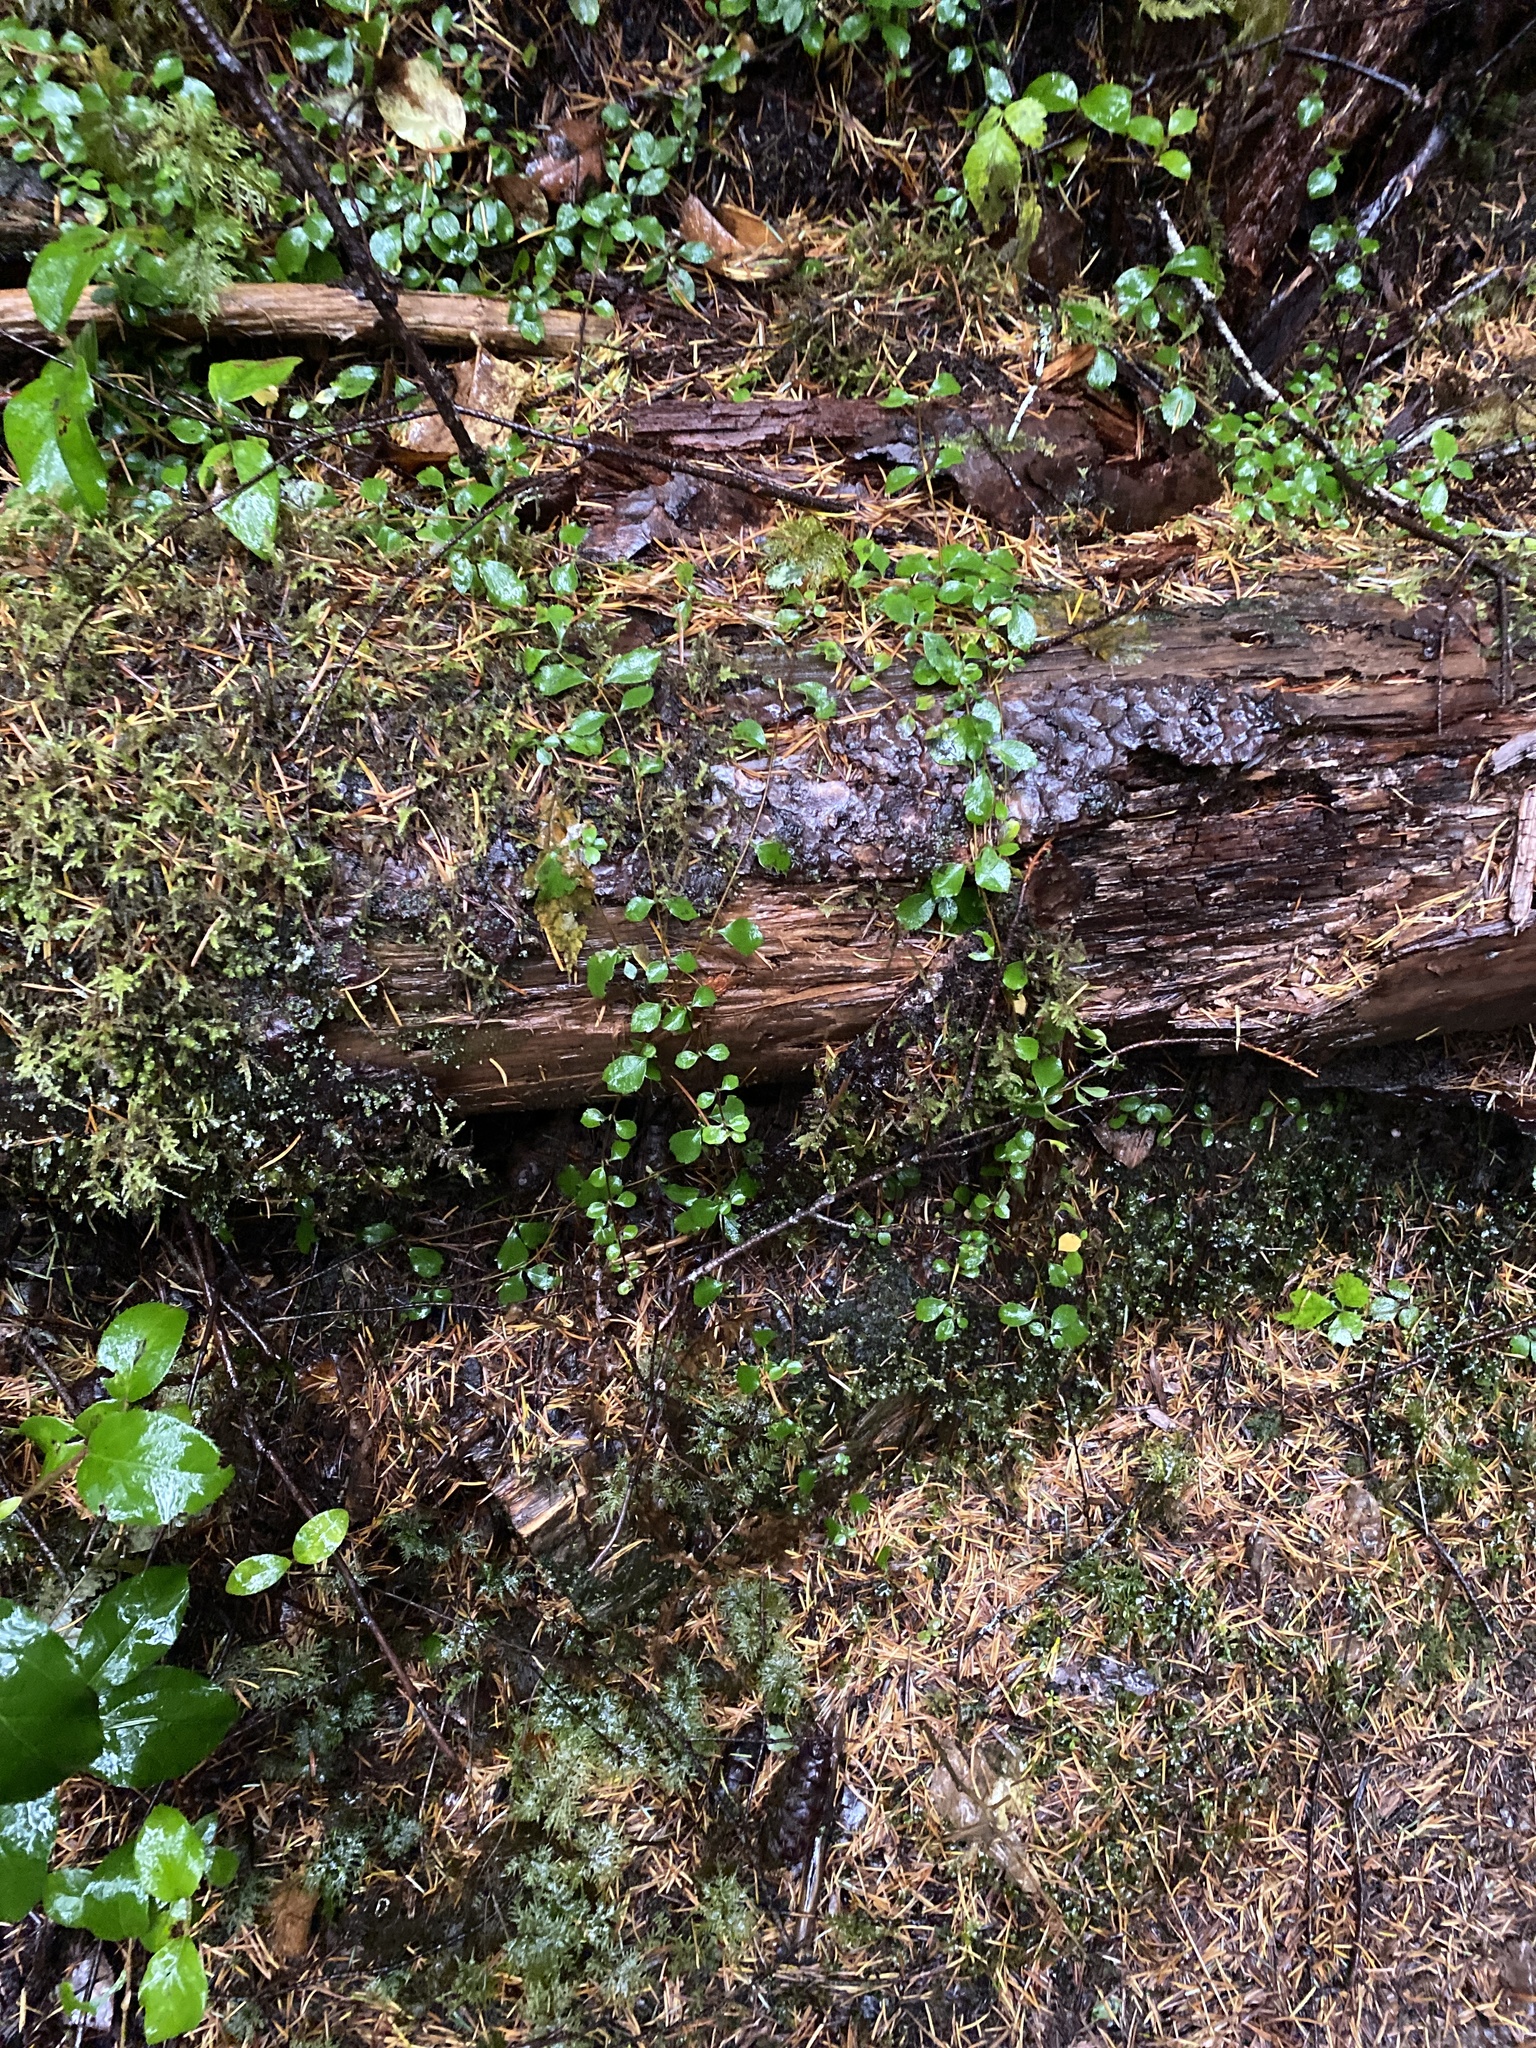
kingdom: Plantae
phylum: Tracheophyta
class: Magnoliopsida
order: Dipsacales
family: Caprifoliaceae
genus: Linnaea
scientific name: Linnaea borealis
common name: Twinflower
